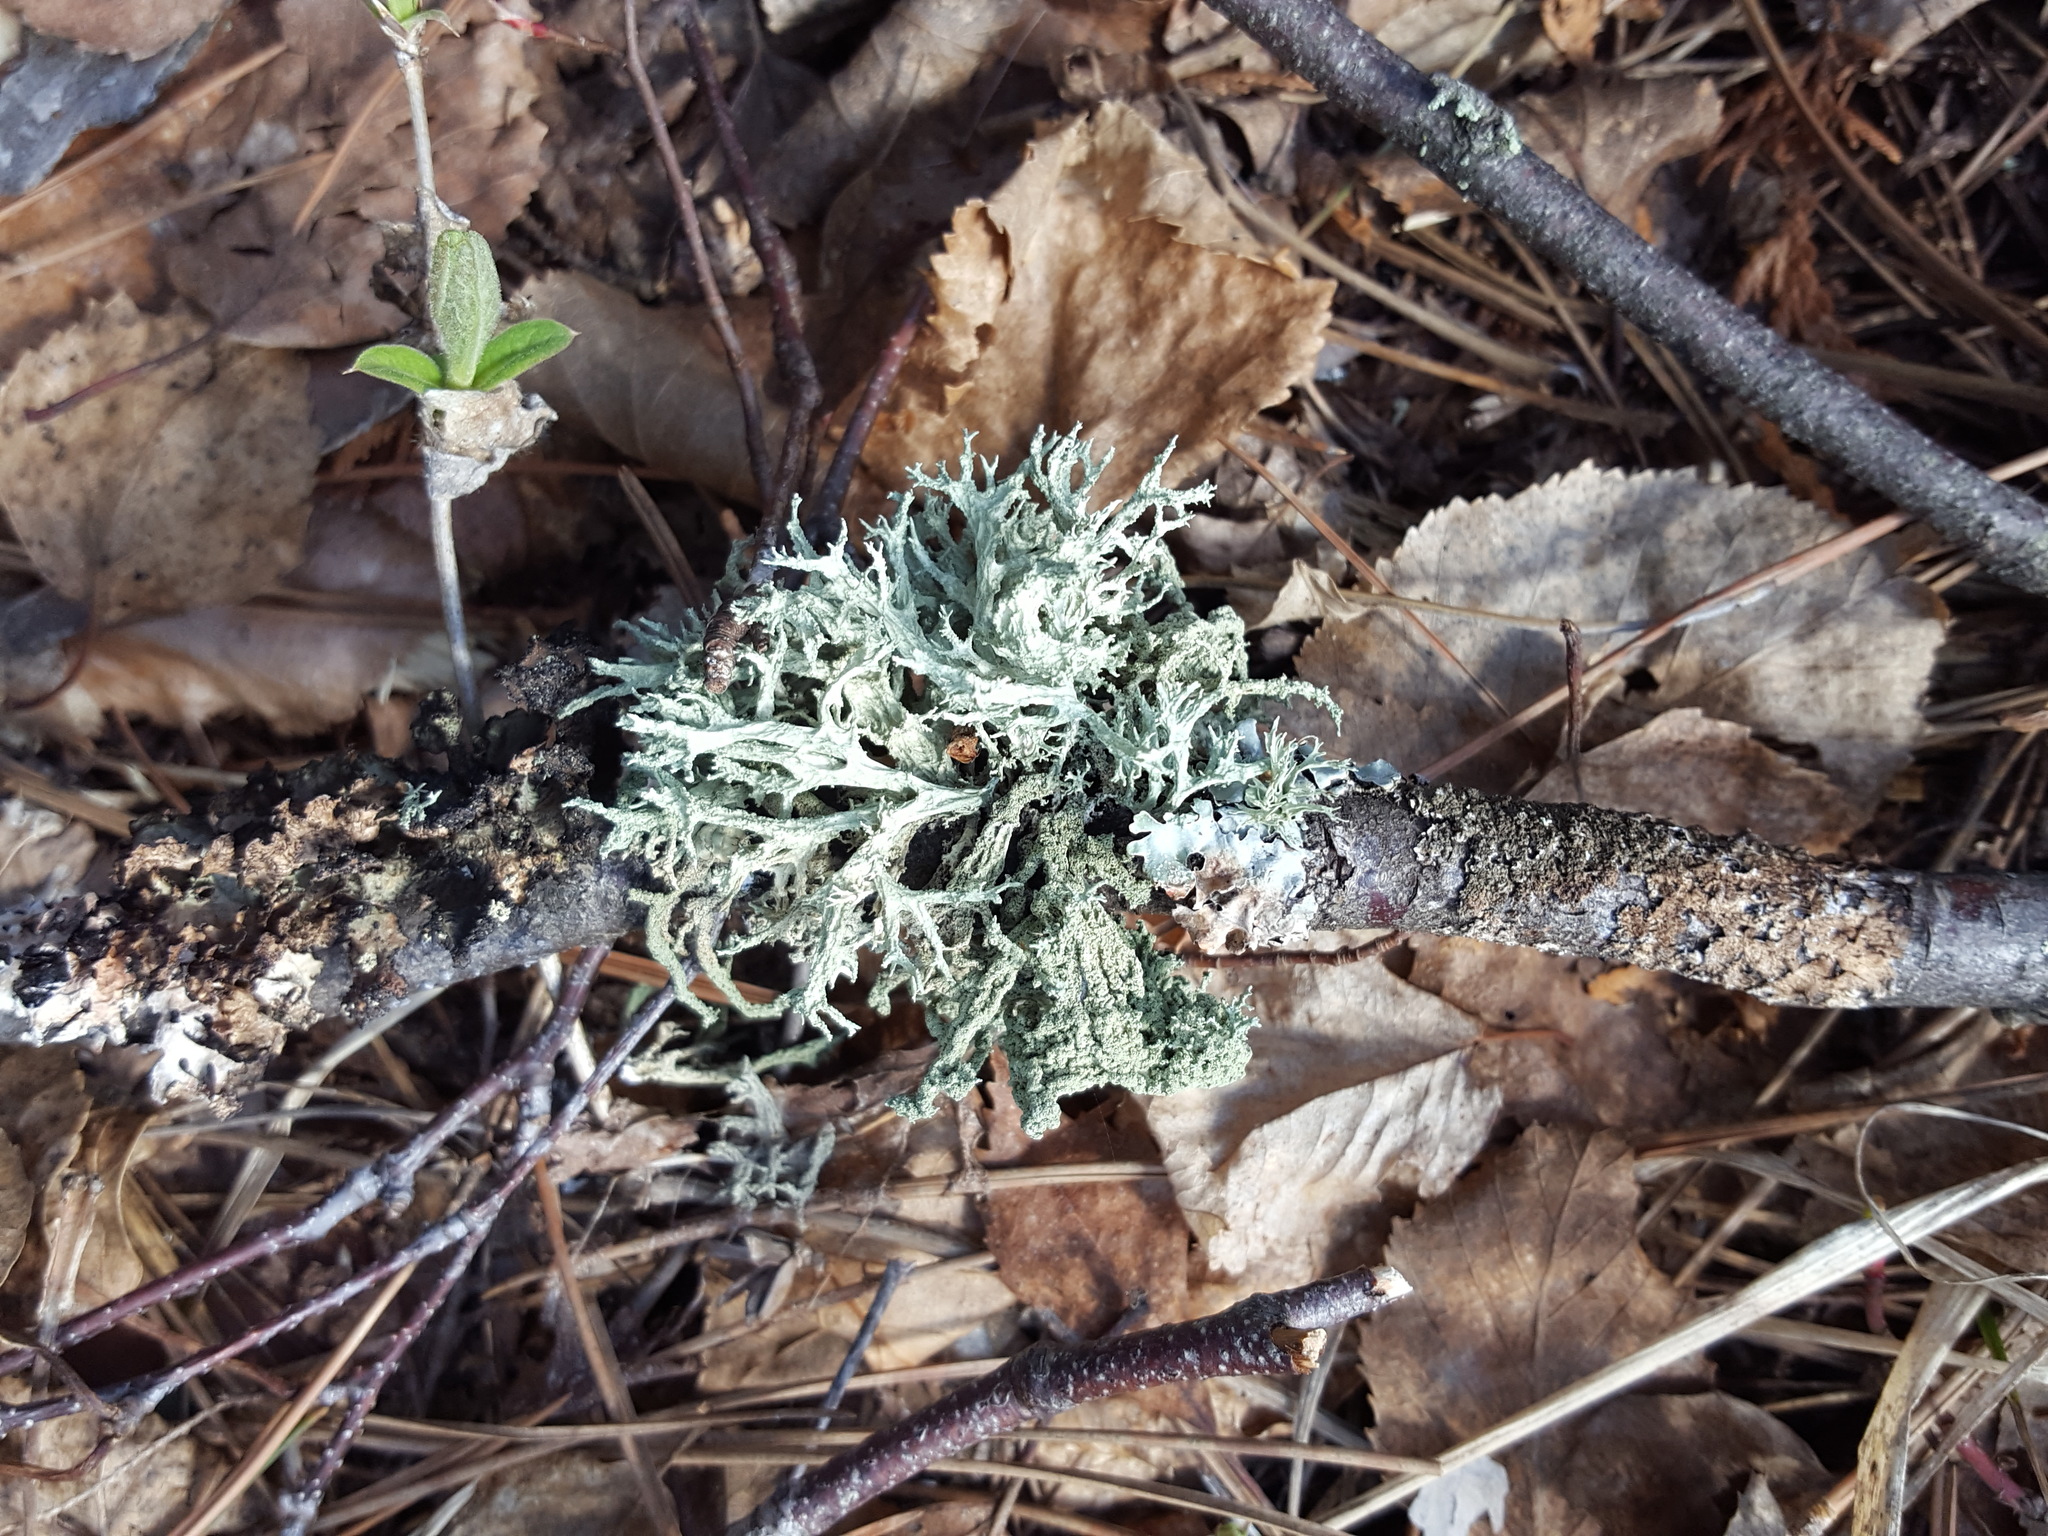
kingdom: Fungi
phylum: Ascomycota
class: Lecanoromycetes
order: Lecanorales
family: Parmeliaceae
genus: Evernia
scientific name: Evernia mesomorpha
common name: Boreal oak moss lichen
